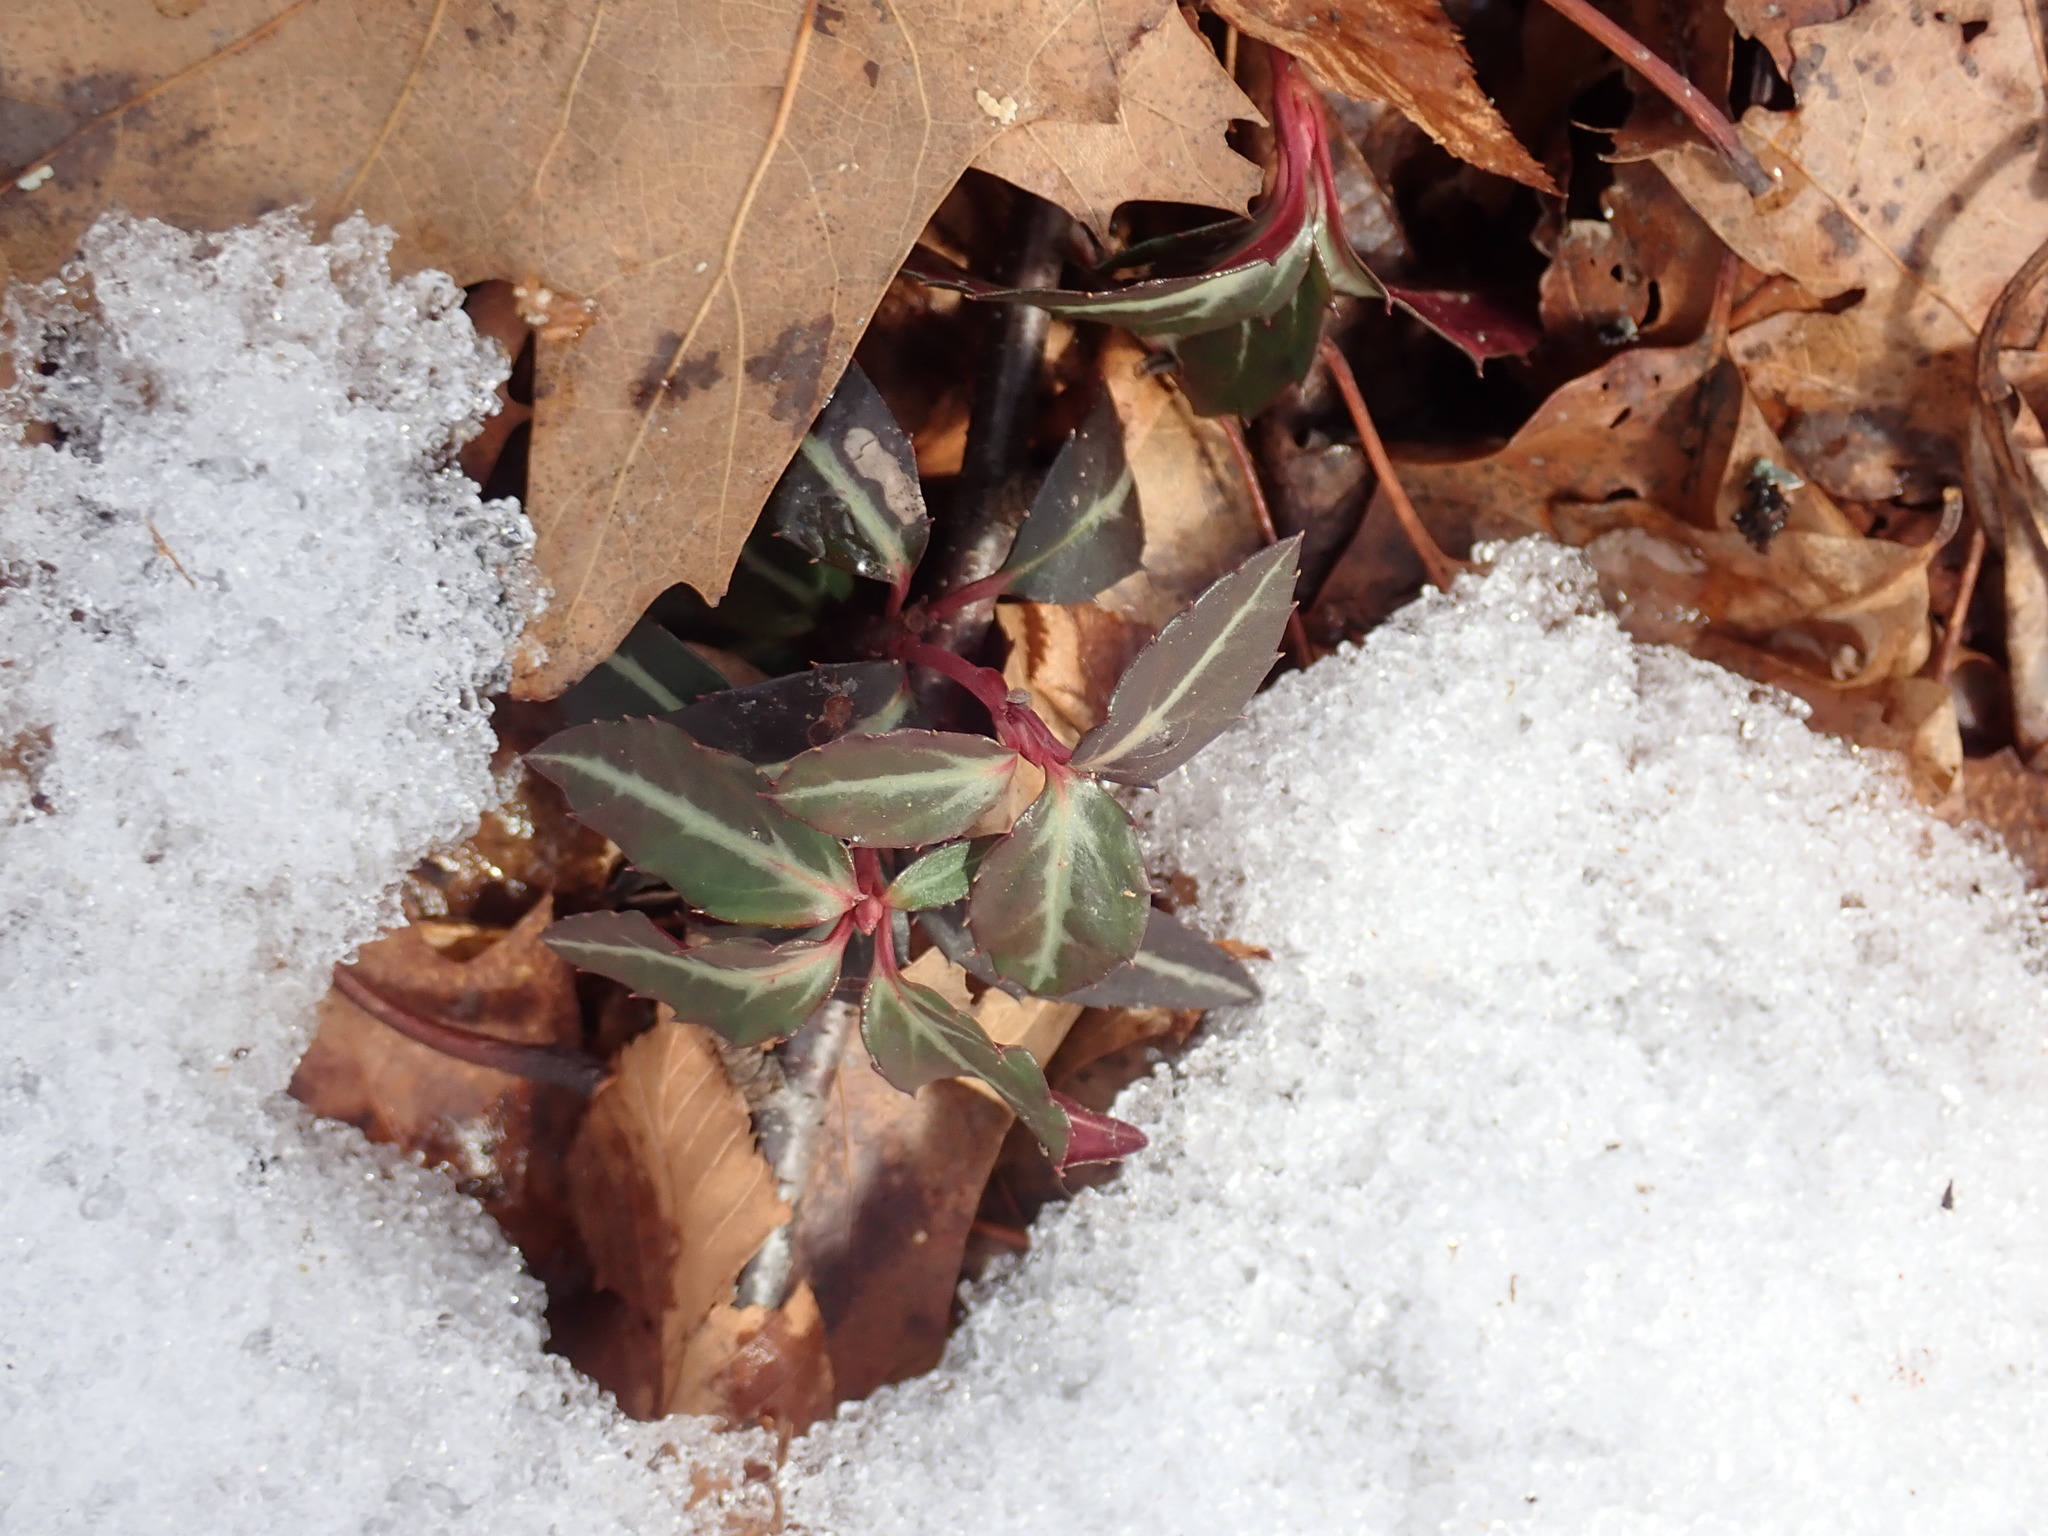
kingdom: Plantae
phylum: Tracheophyta
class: Magnoliopsida
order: Ericales
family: Ericaceae
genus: Chimaphila
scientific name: Chimaphila maculata
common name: Spotted pipsissewa
